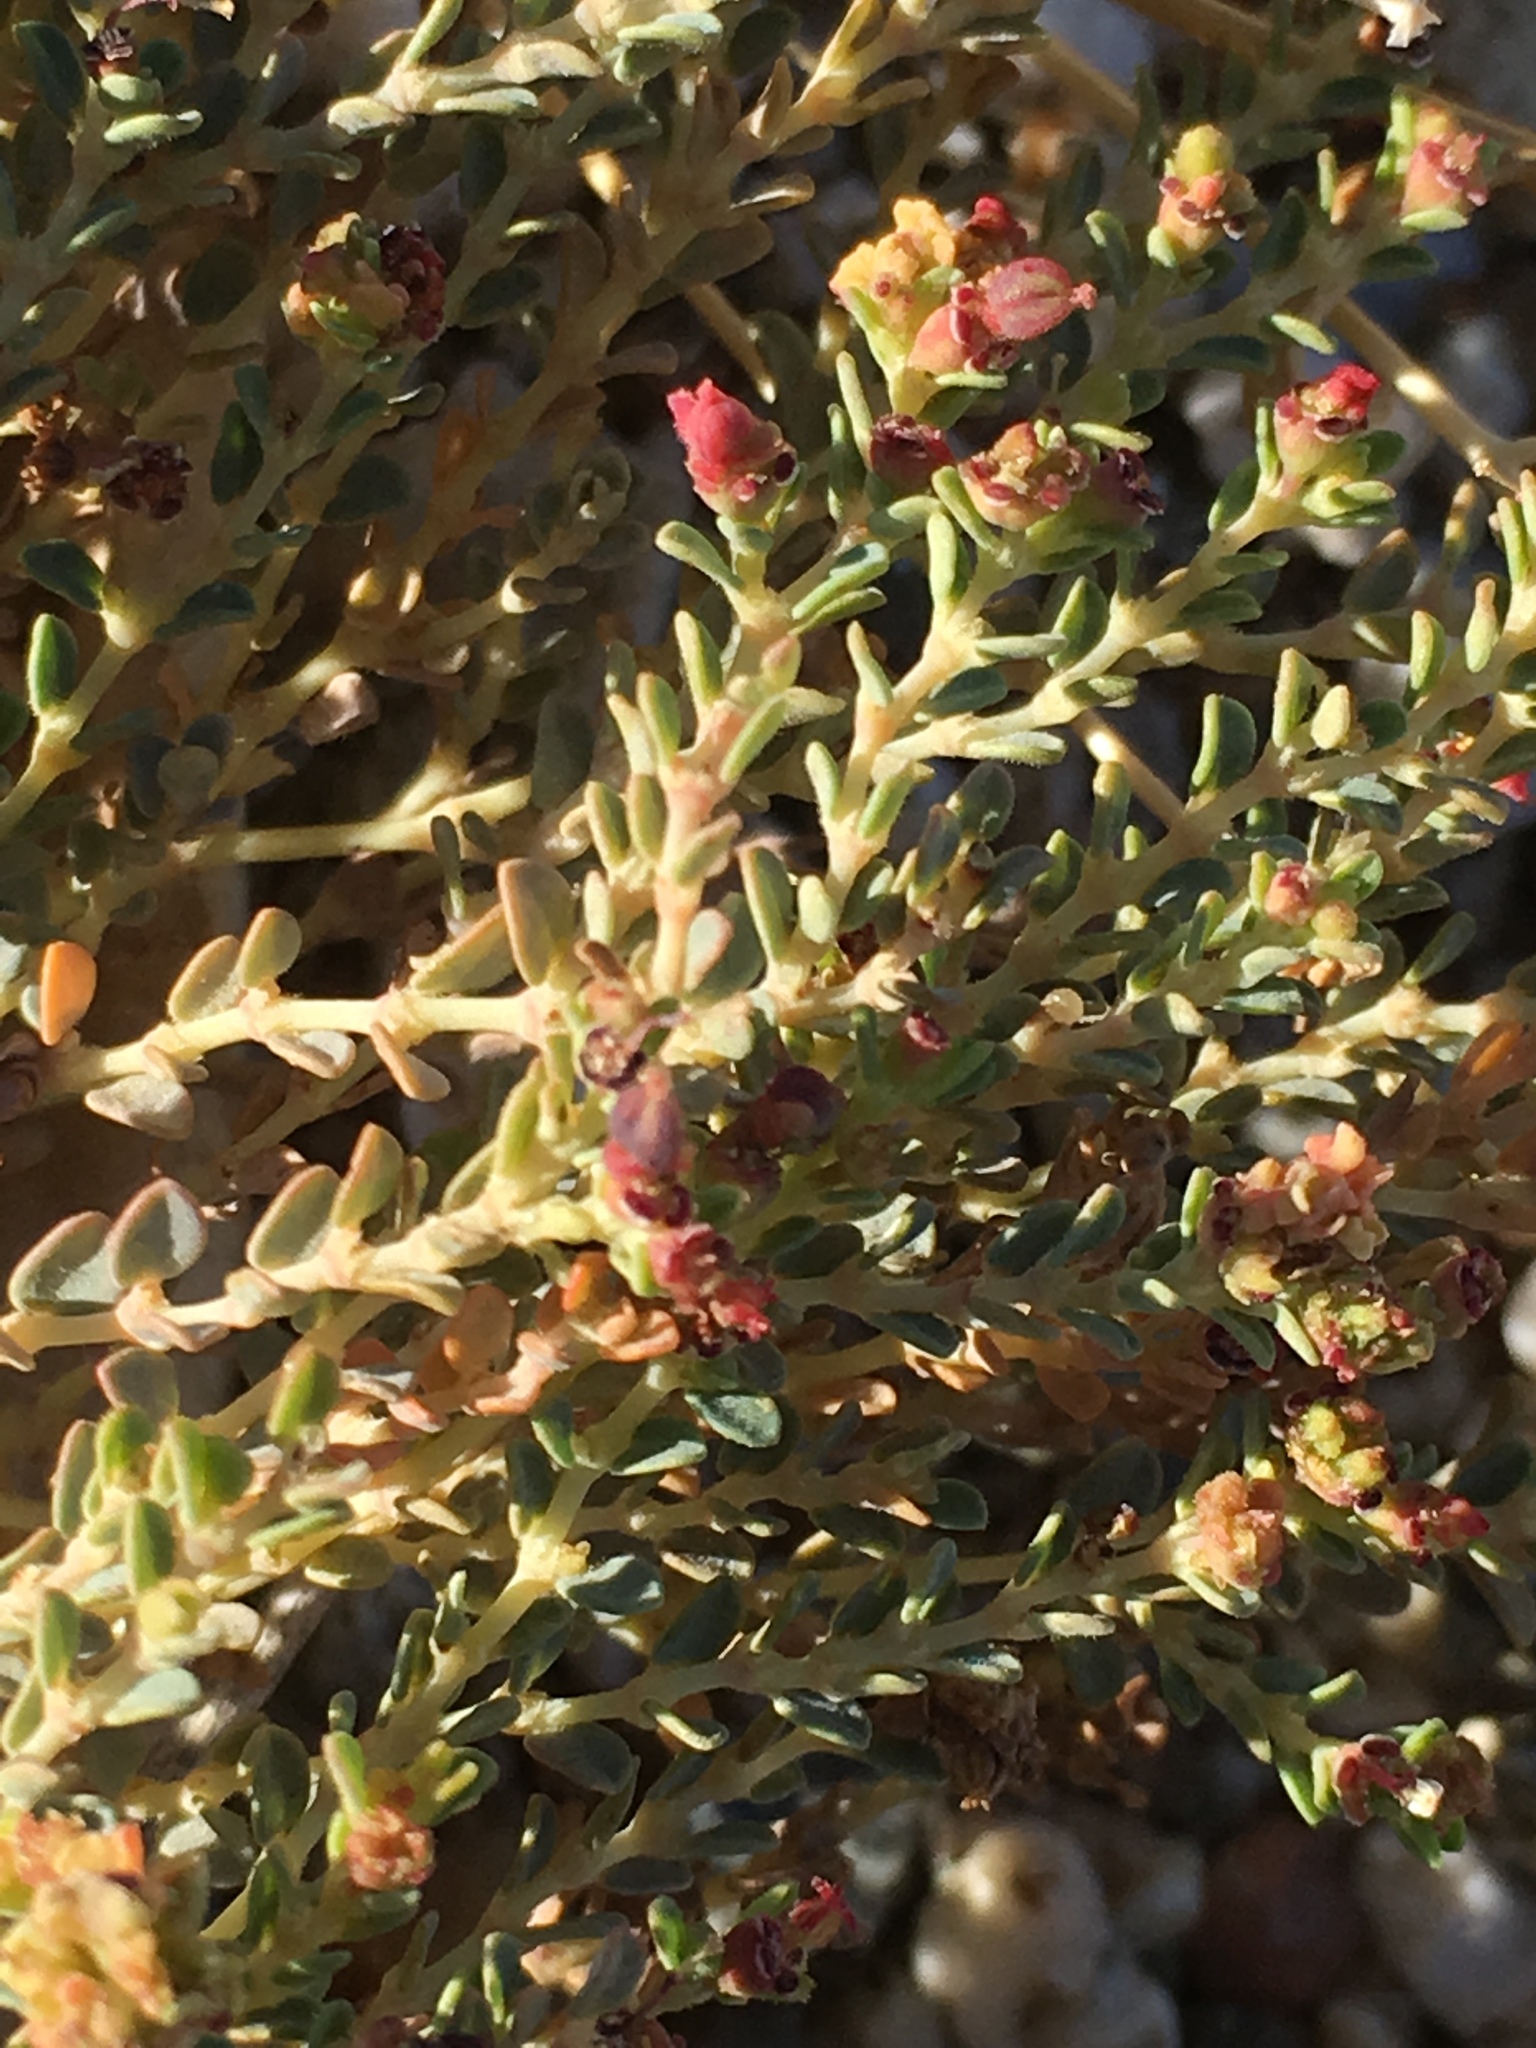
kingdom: Plantae
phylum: Tracheophyta
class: Magnoliopsida
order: Malpighiales
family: Euphorbiaceae
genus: Euphorbia
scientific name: Euphorbia polycarpa
